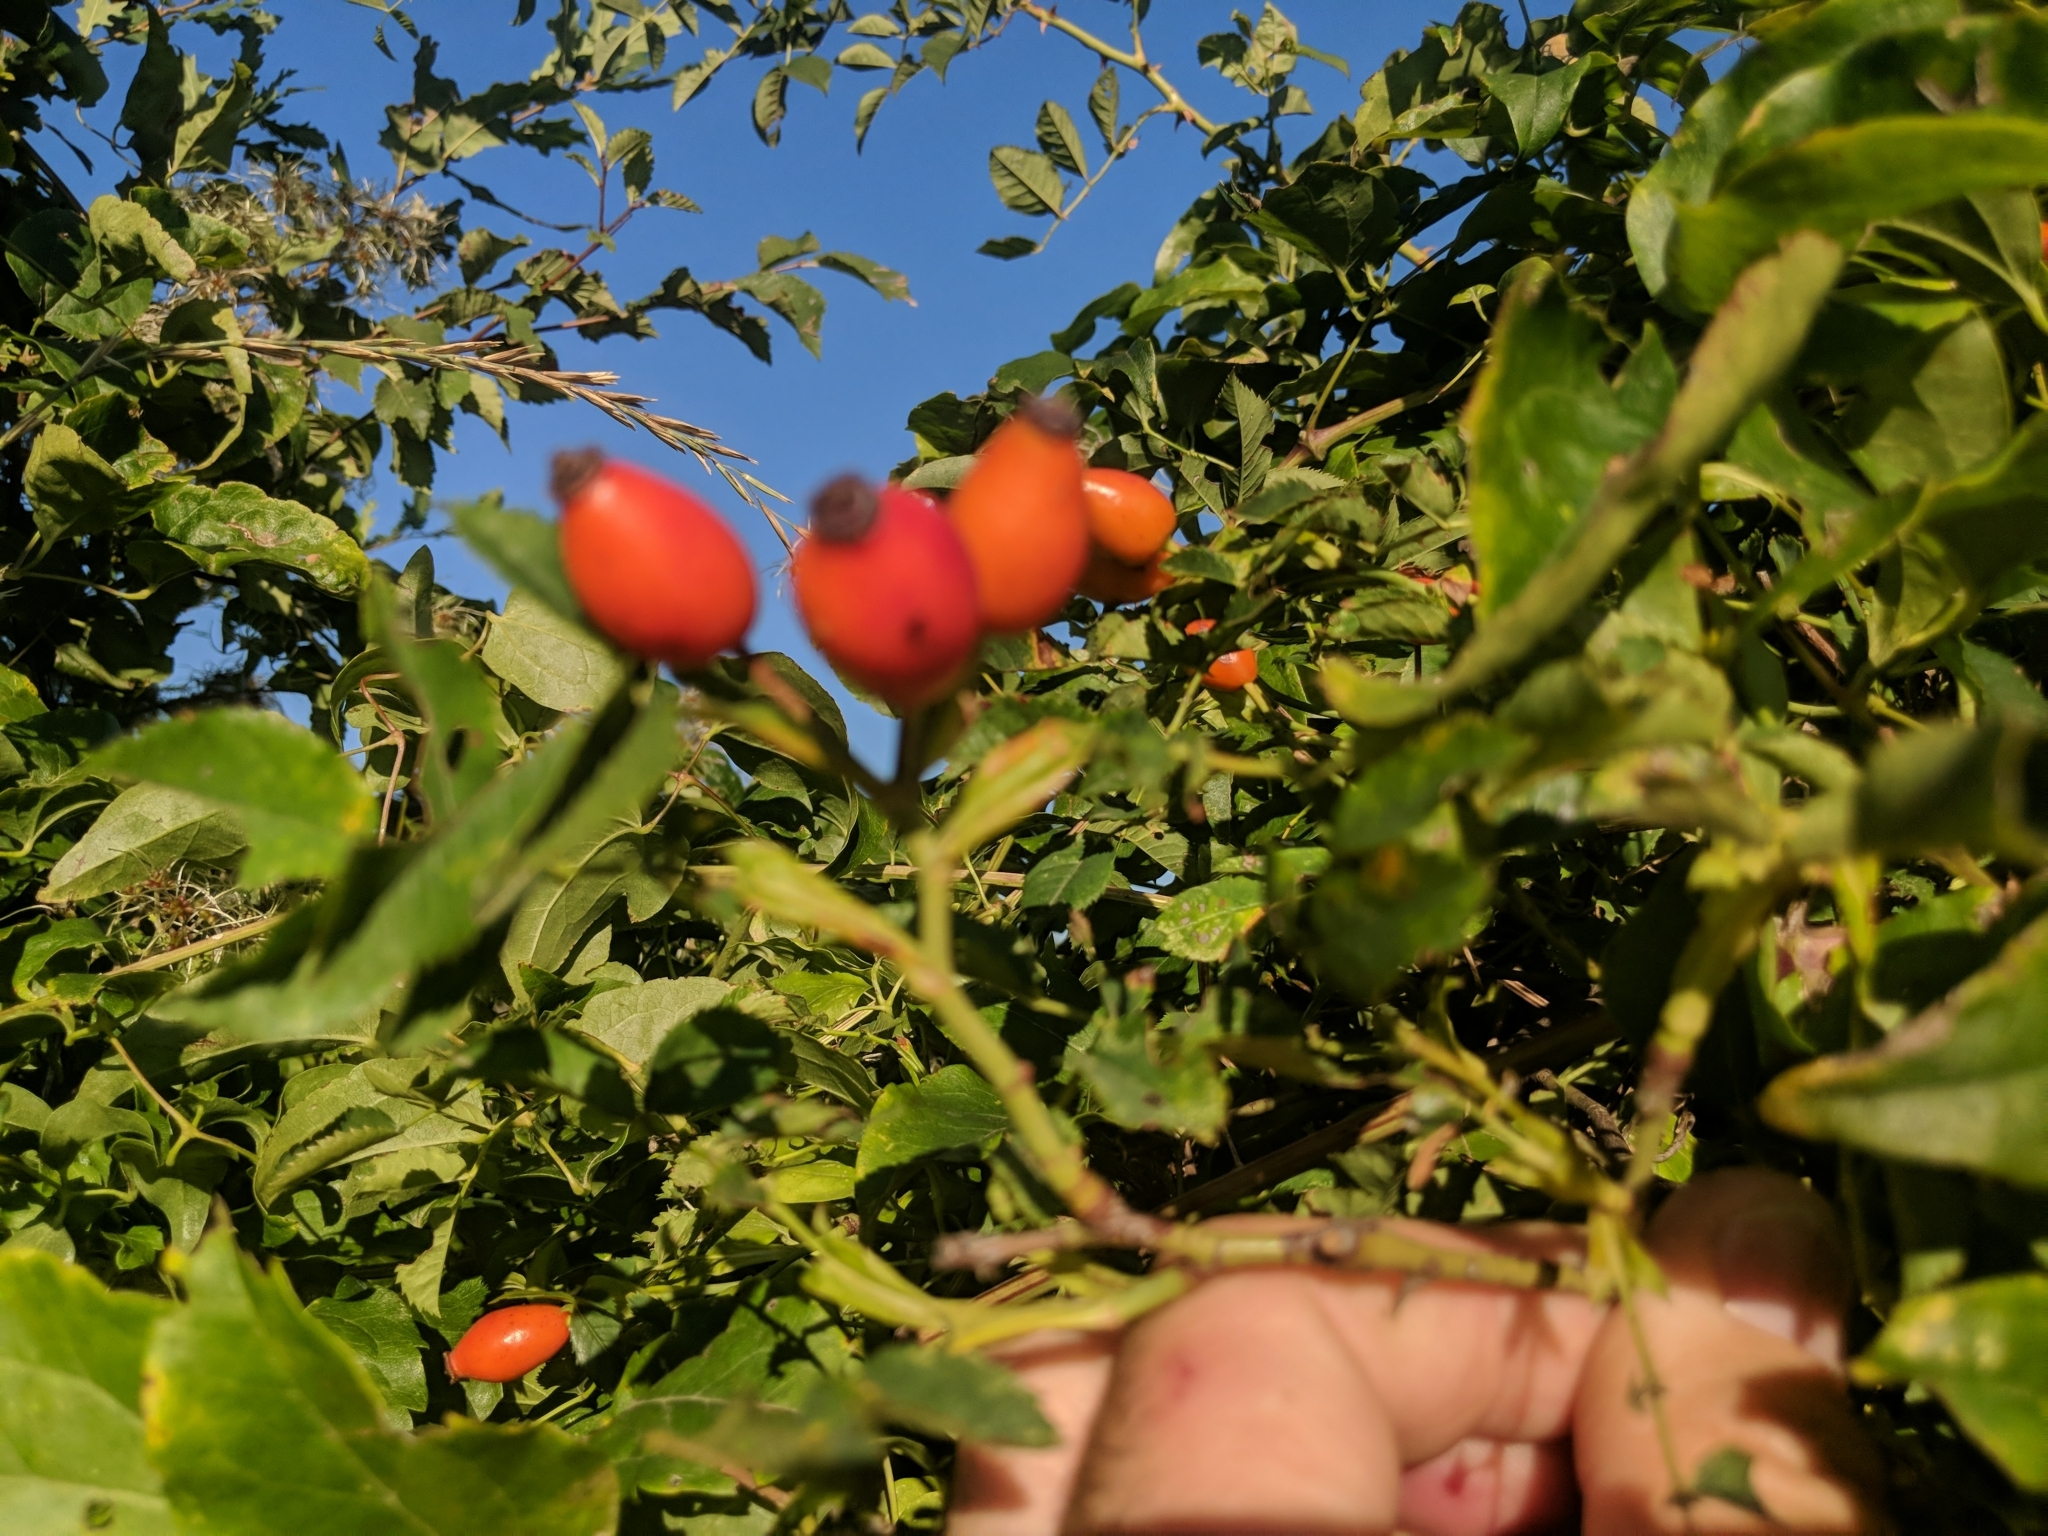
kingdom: Plantae
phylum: Tracheophyta
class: Magnoliopsida
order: Rosales
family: Rosaceae
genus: Rosa
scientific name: Rosa canina
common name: Dog rose
